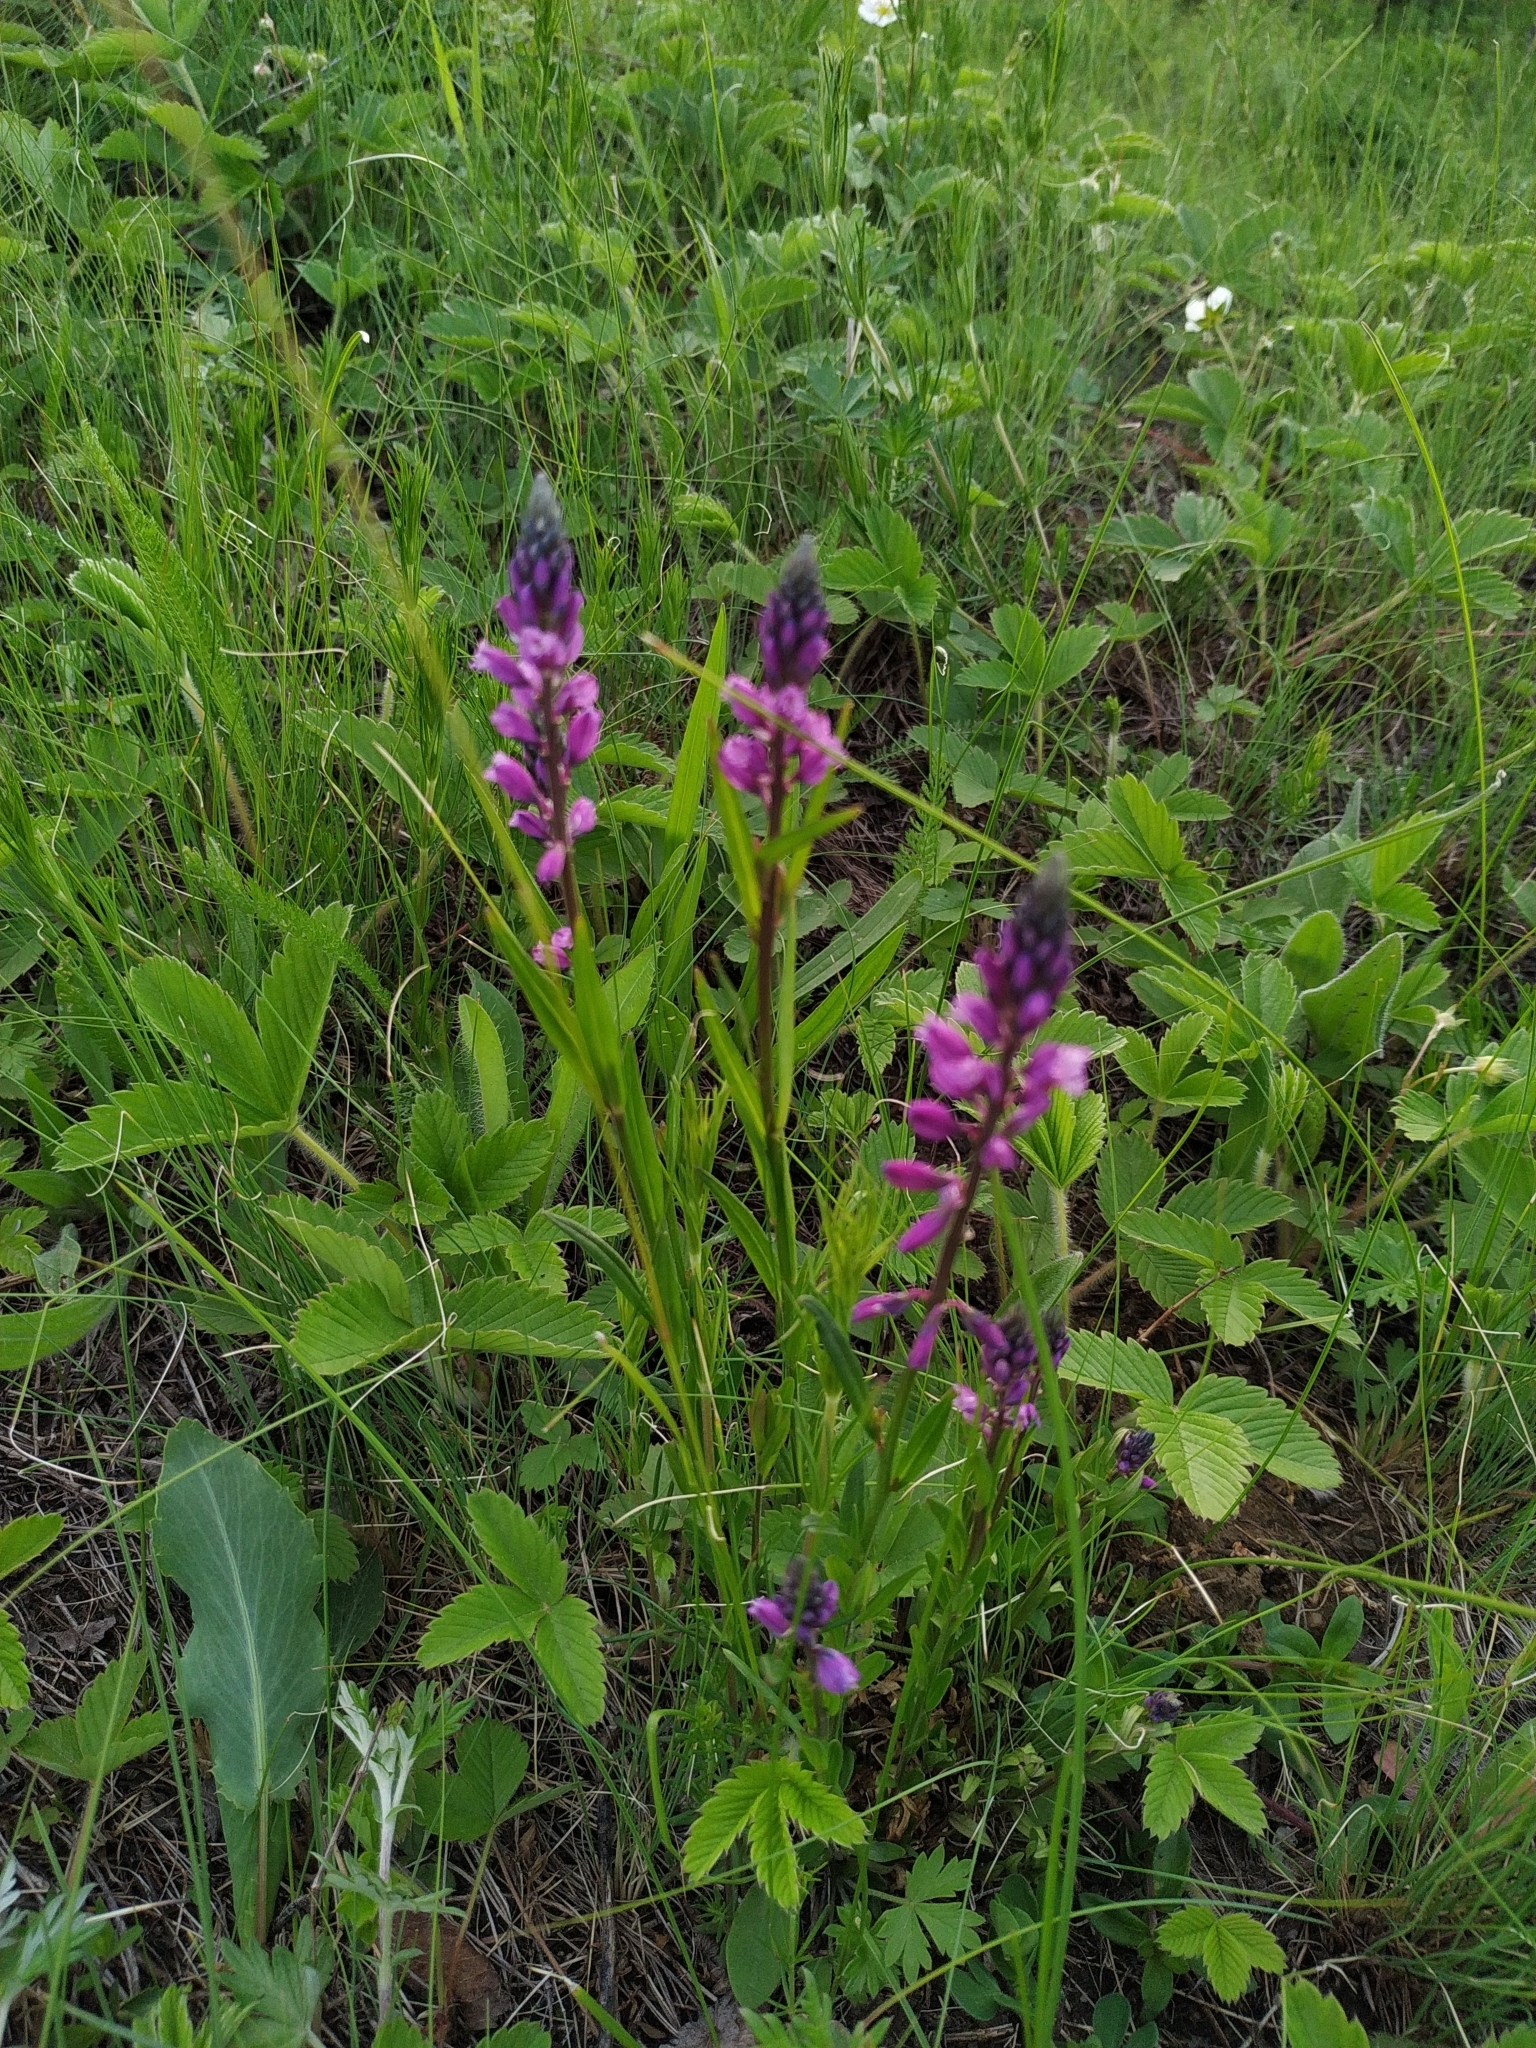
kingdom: Plantae
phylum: Tracheophyta
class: Magnoliopsida
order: Fabales
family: Polygalaceae
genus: Polygala
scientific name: Polygala comosa
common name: Tufted milkwort
